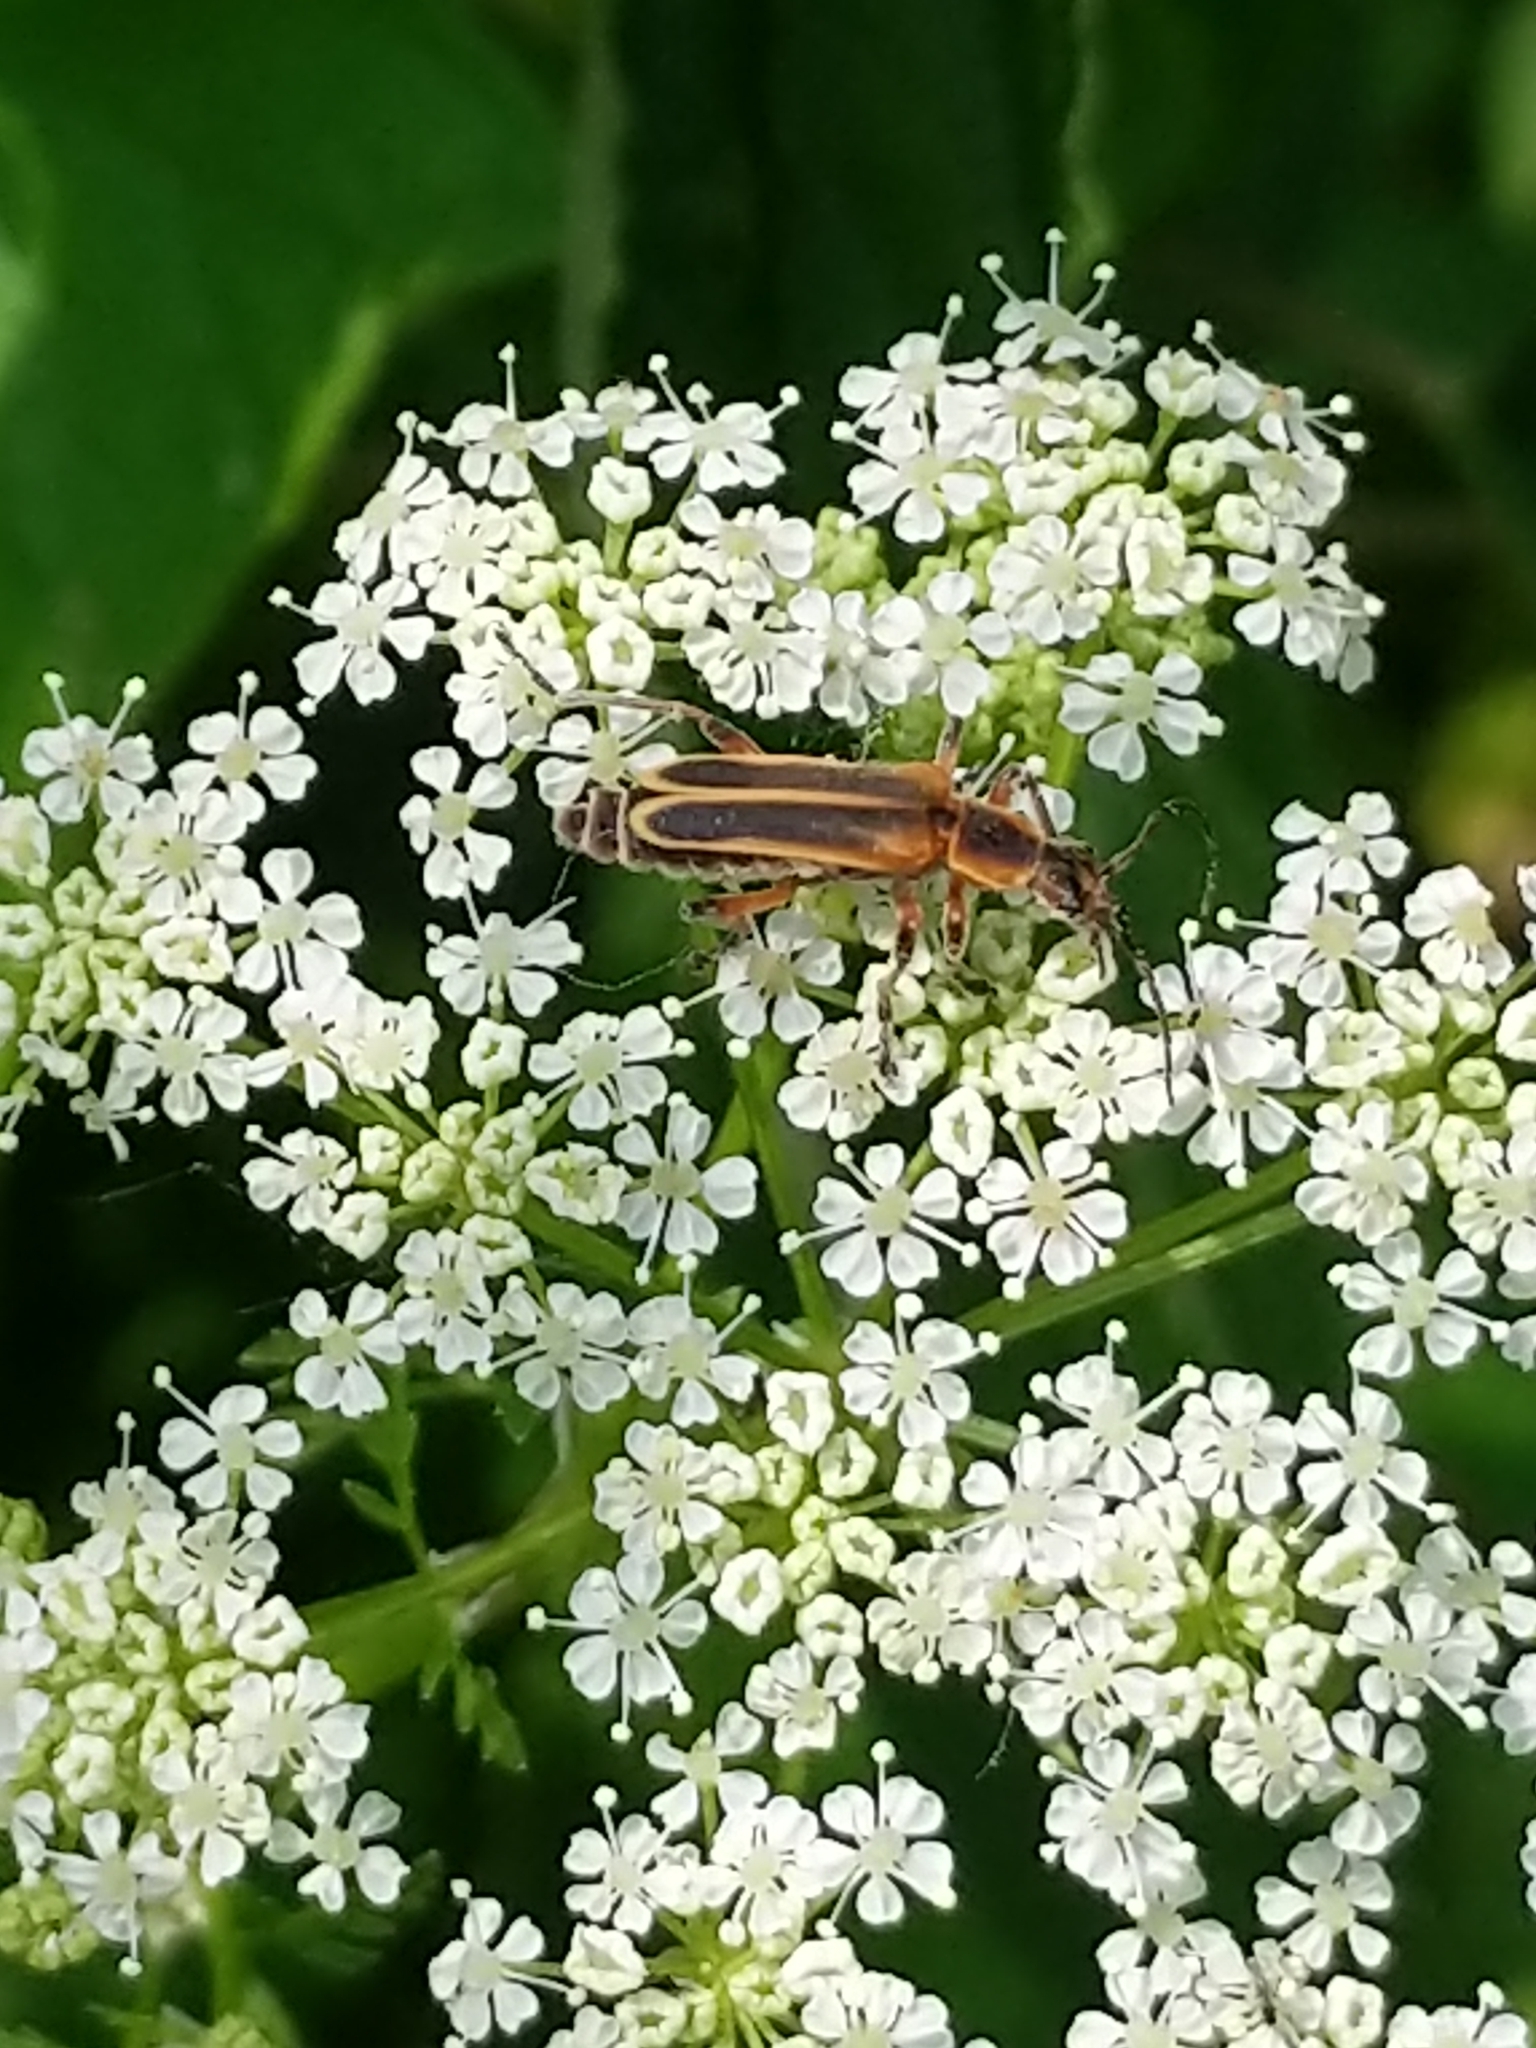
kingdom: Animalia
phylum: Arthropoda
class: Insecta
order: Coleoptera
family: Cantharidae
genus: Chauliognathus
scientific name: Chauliognathus marginatus
